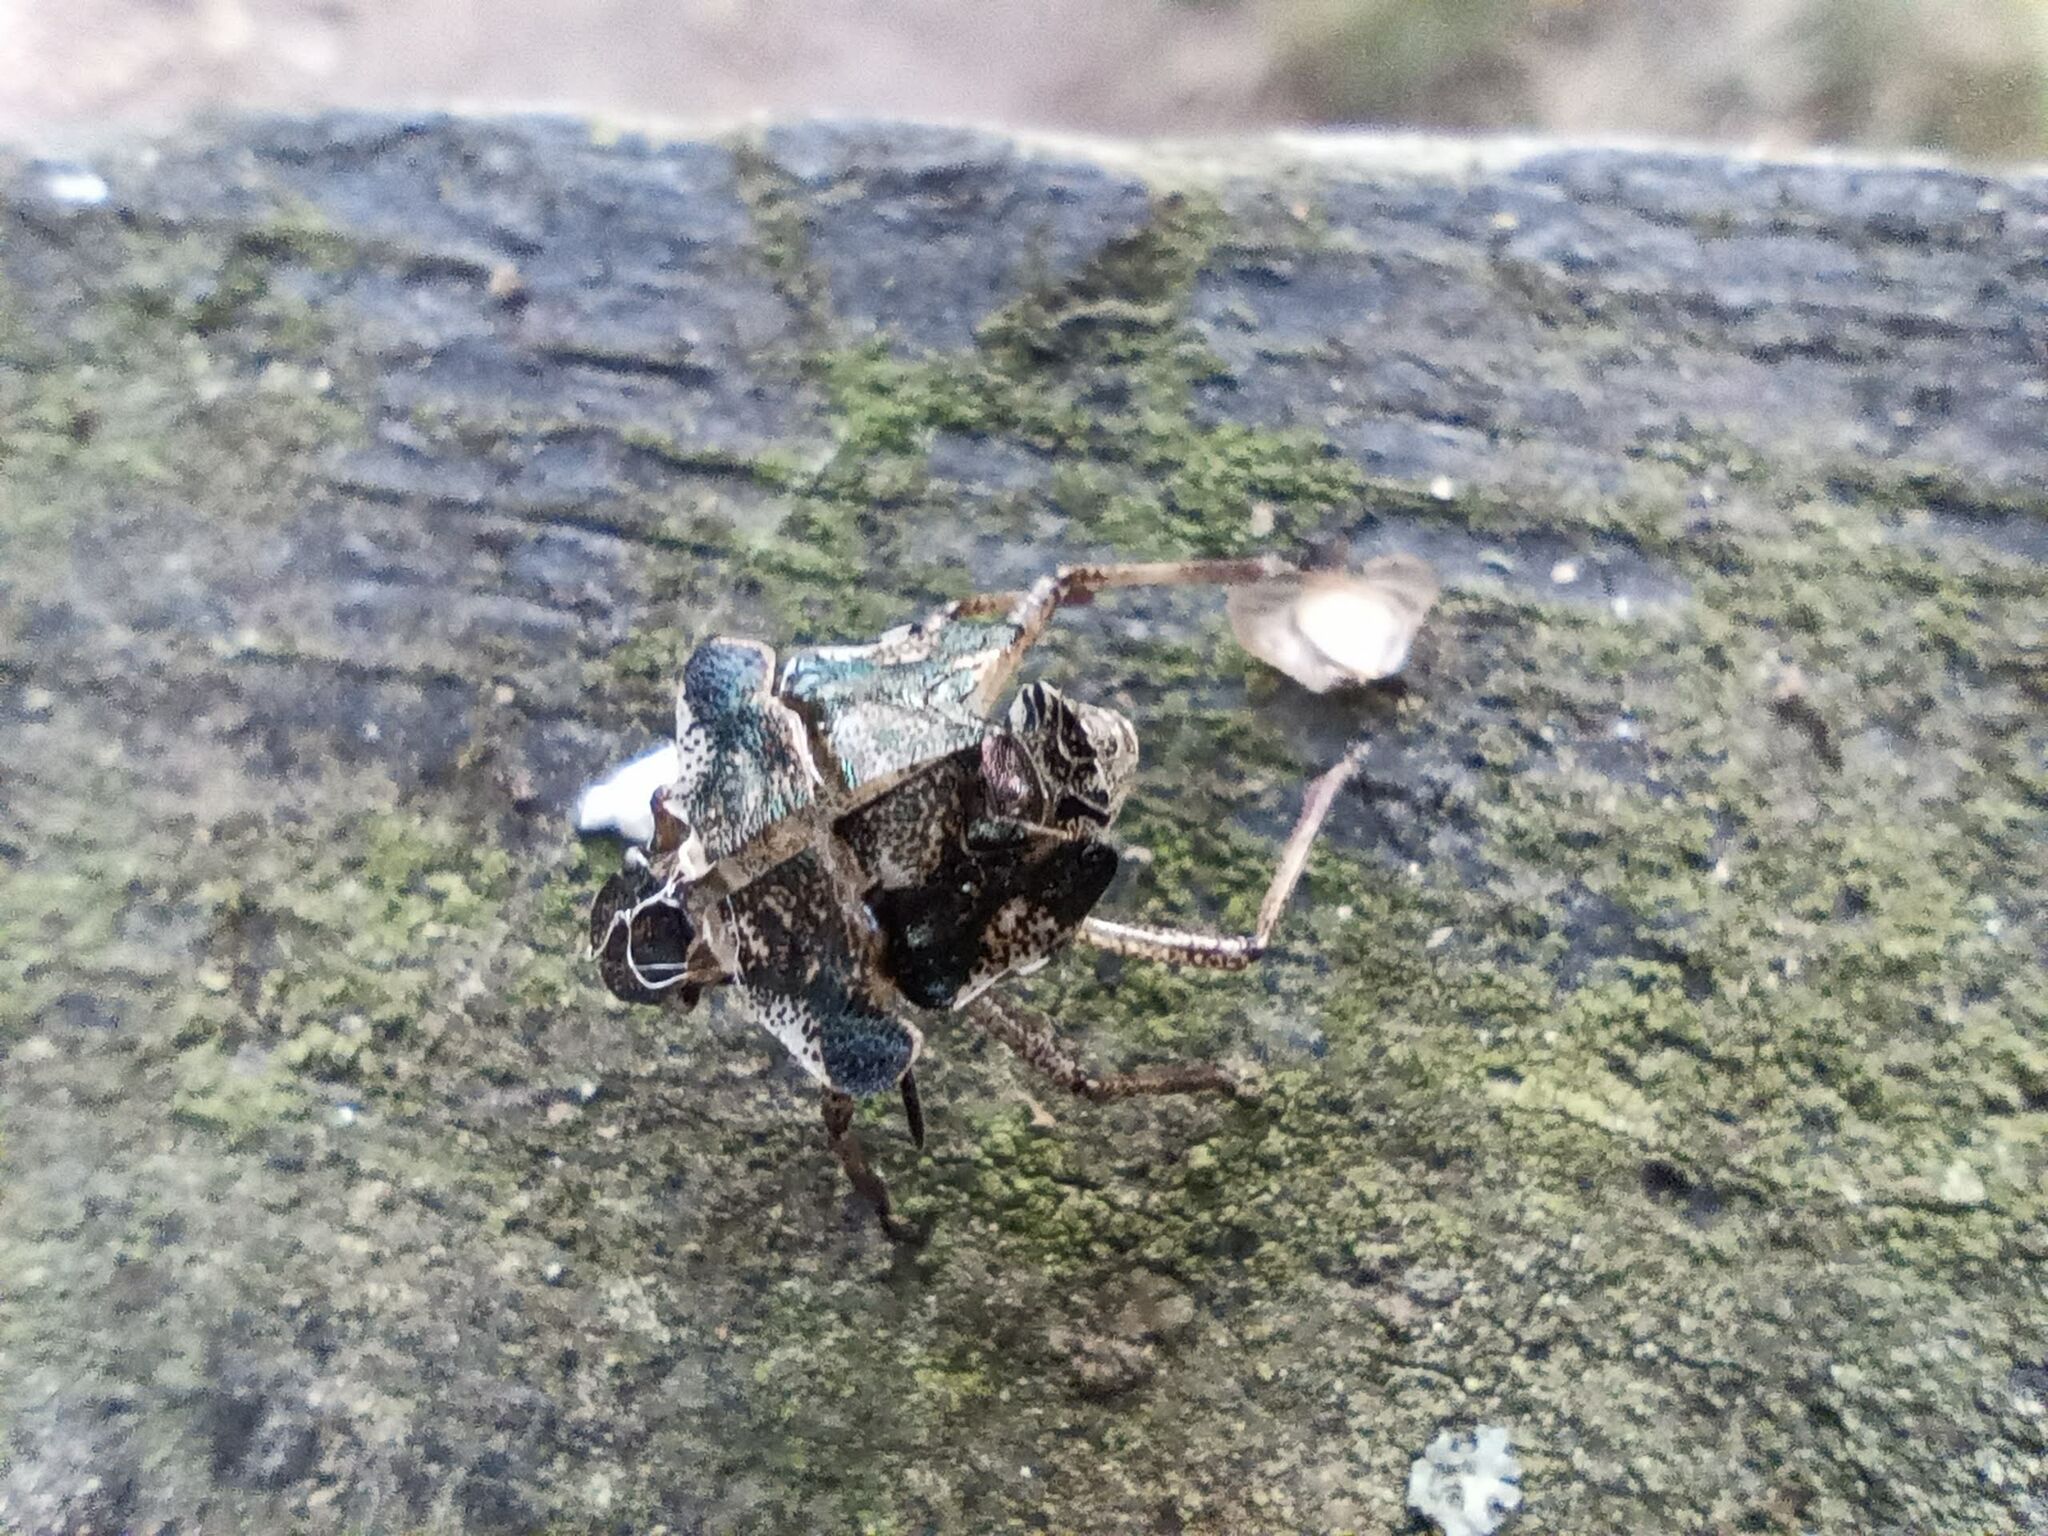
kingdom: Animalia
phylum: Arthropoda
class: Insecta
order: Hemiptera
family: Pentatomidae
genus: Pentatoma
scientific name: Pentatoma rufipes
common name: Forest bug
